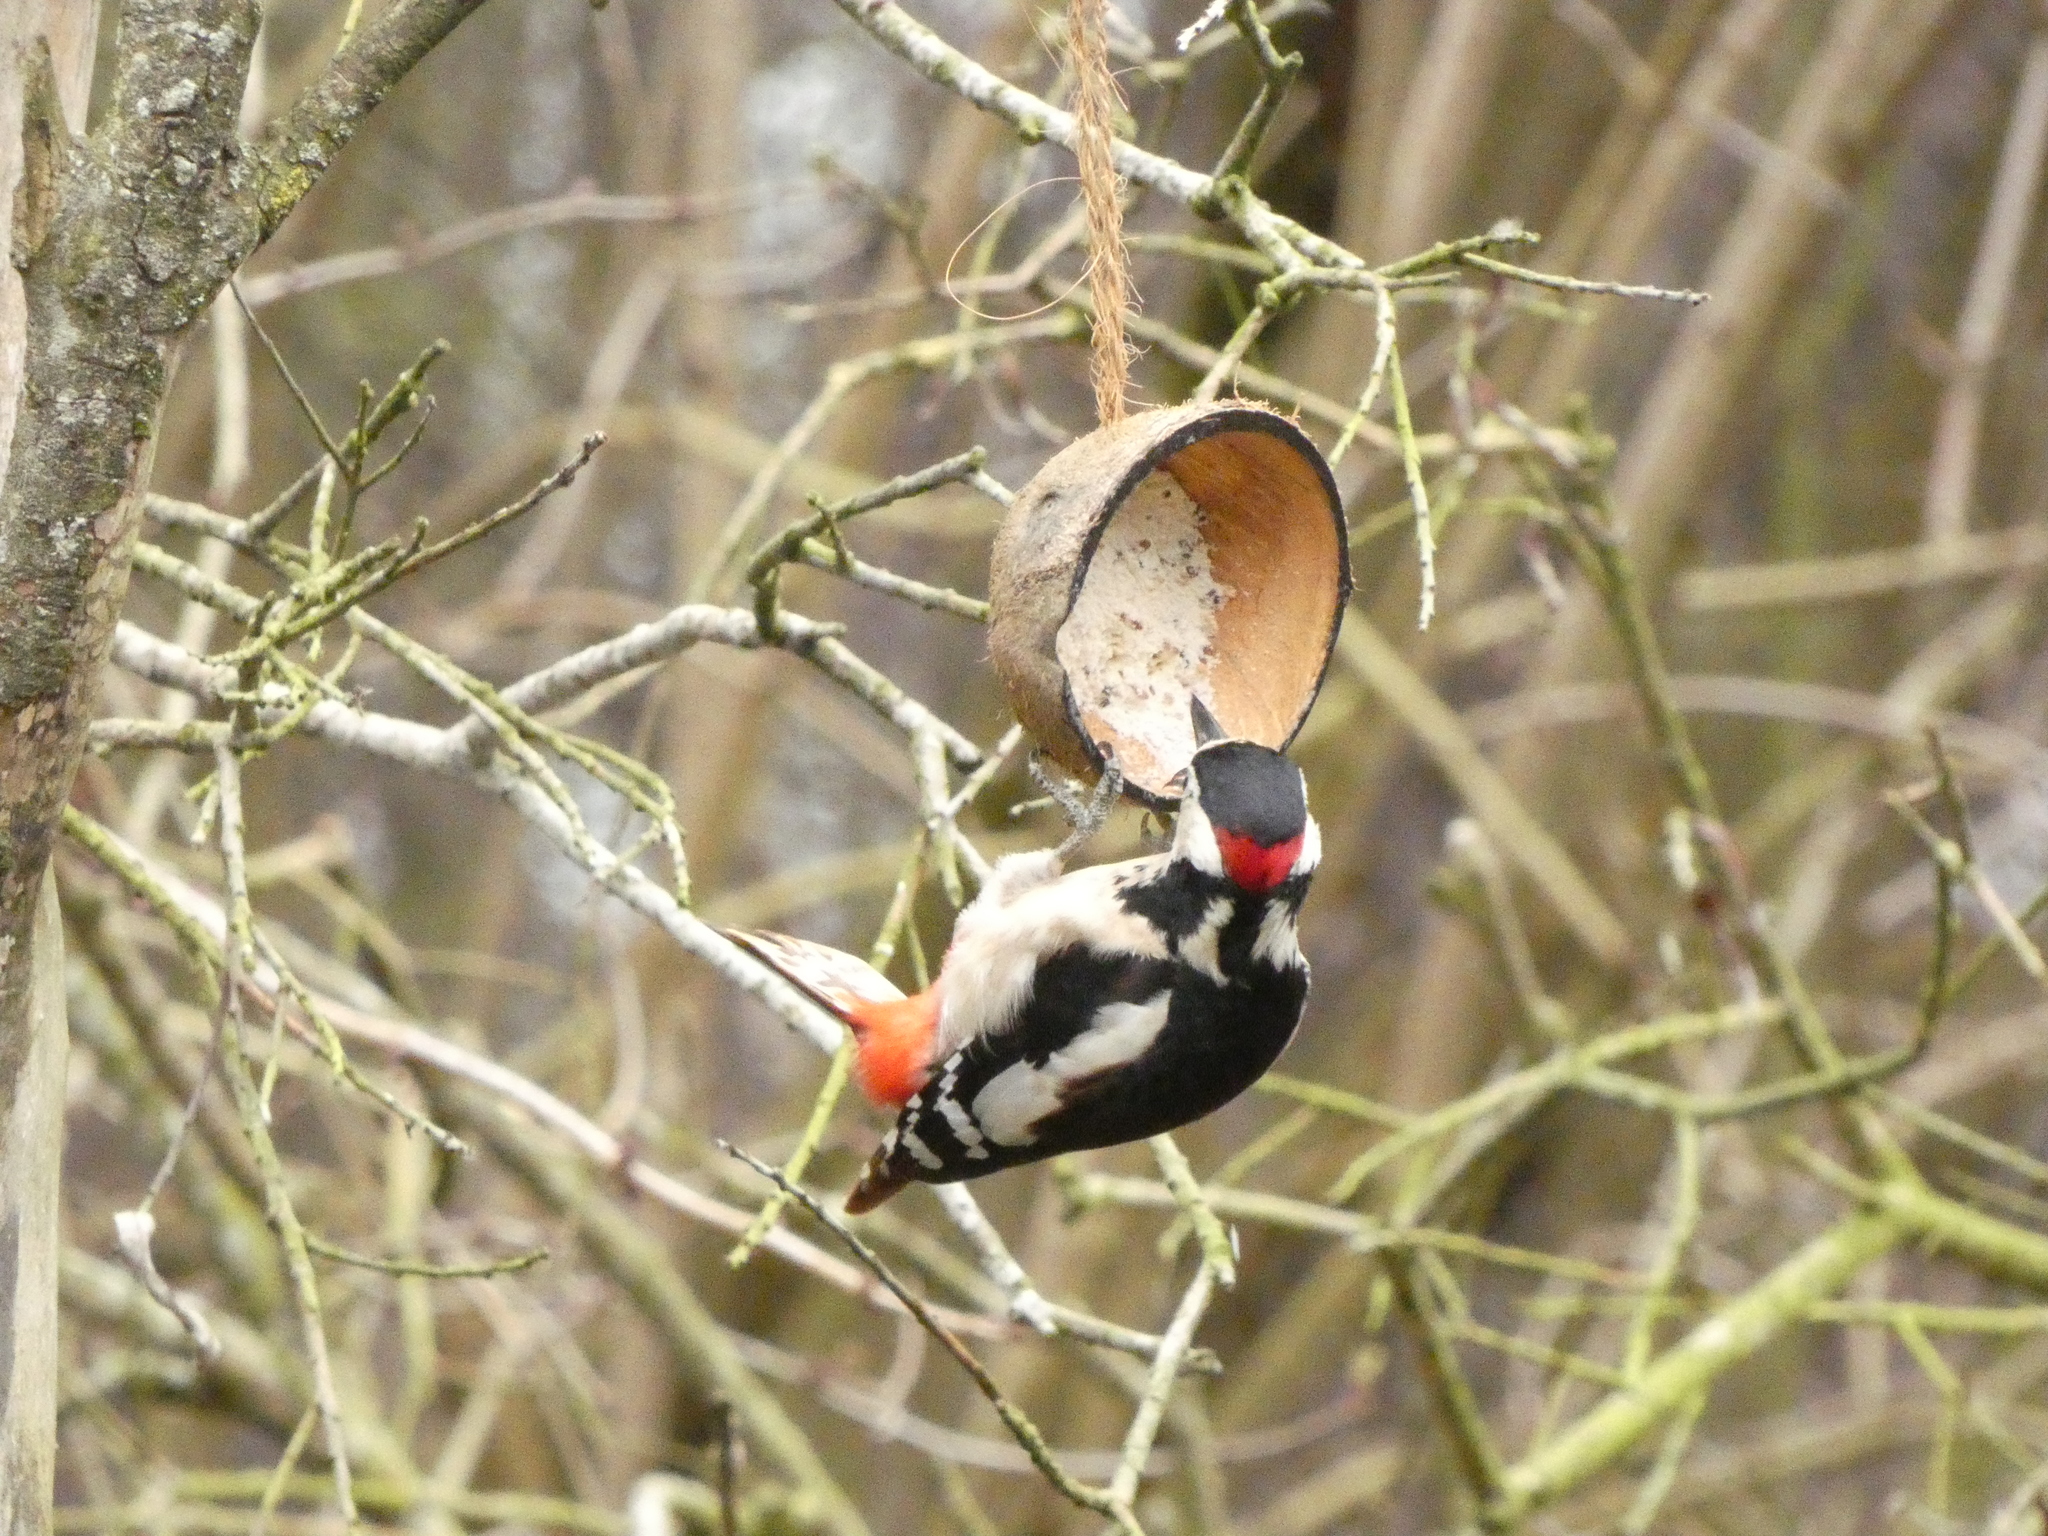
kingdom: Animalia
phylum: Chordata
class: Aves
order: Piciformes
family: Picidae
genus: Dendrocopos
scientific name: Dendrocopos major
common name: Great spotted woodpecker
